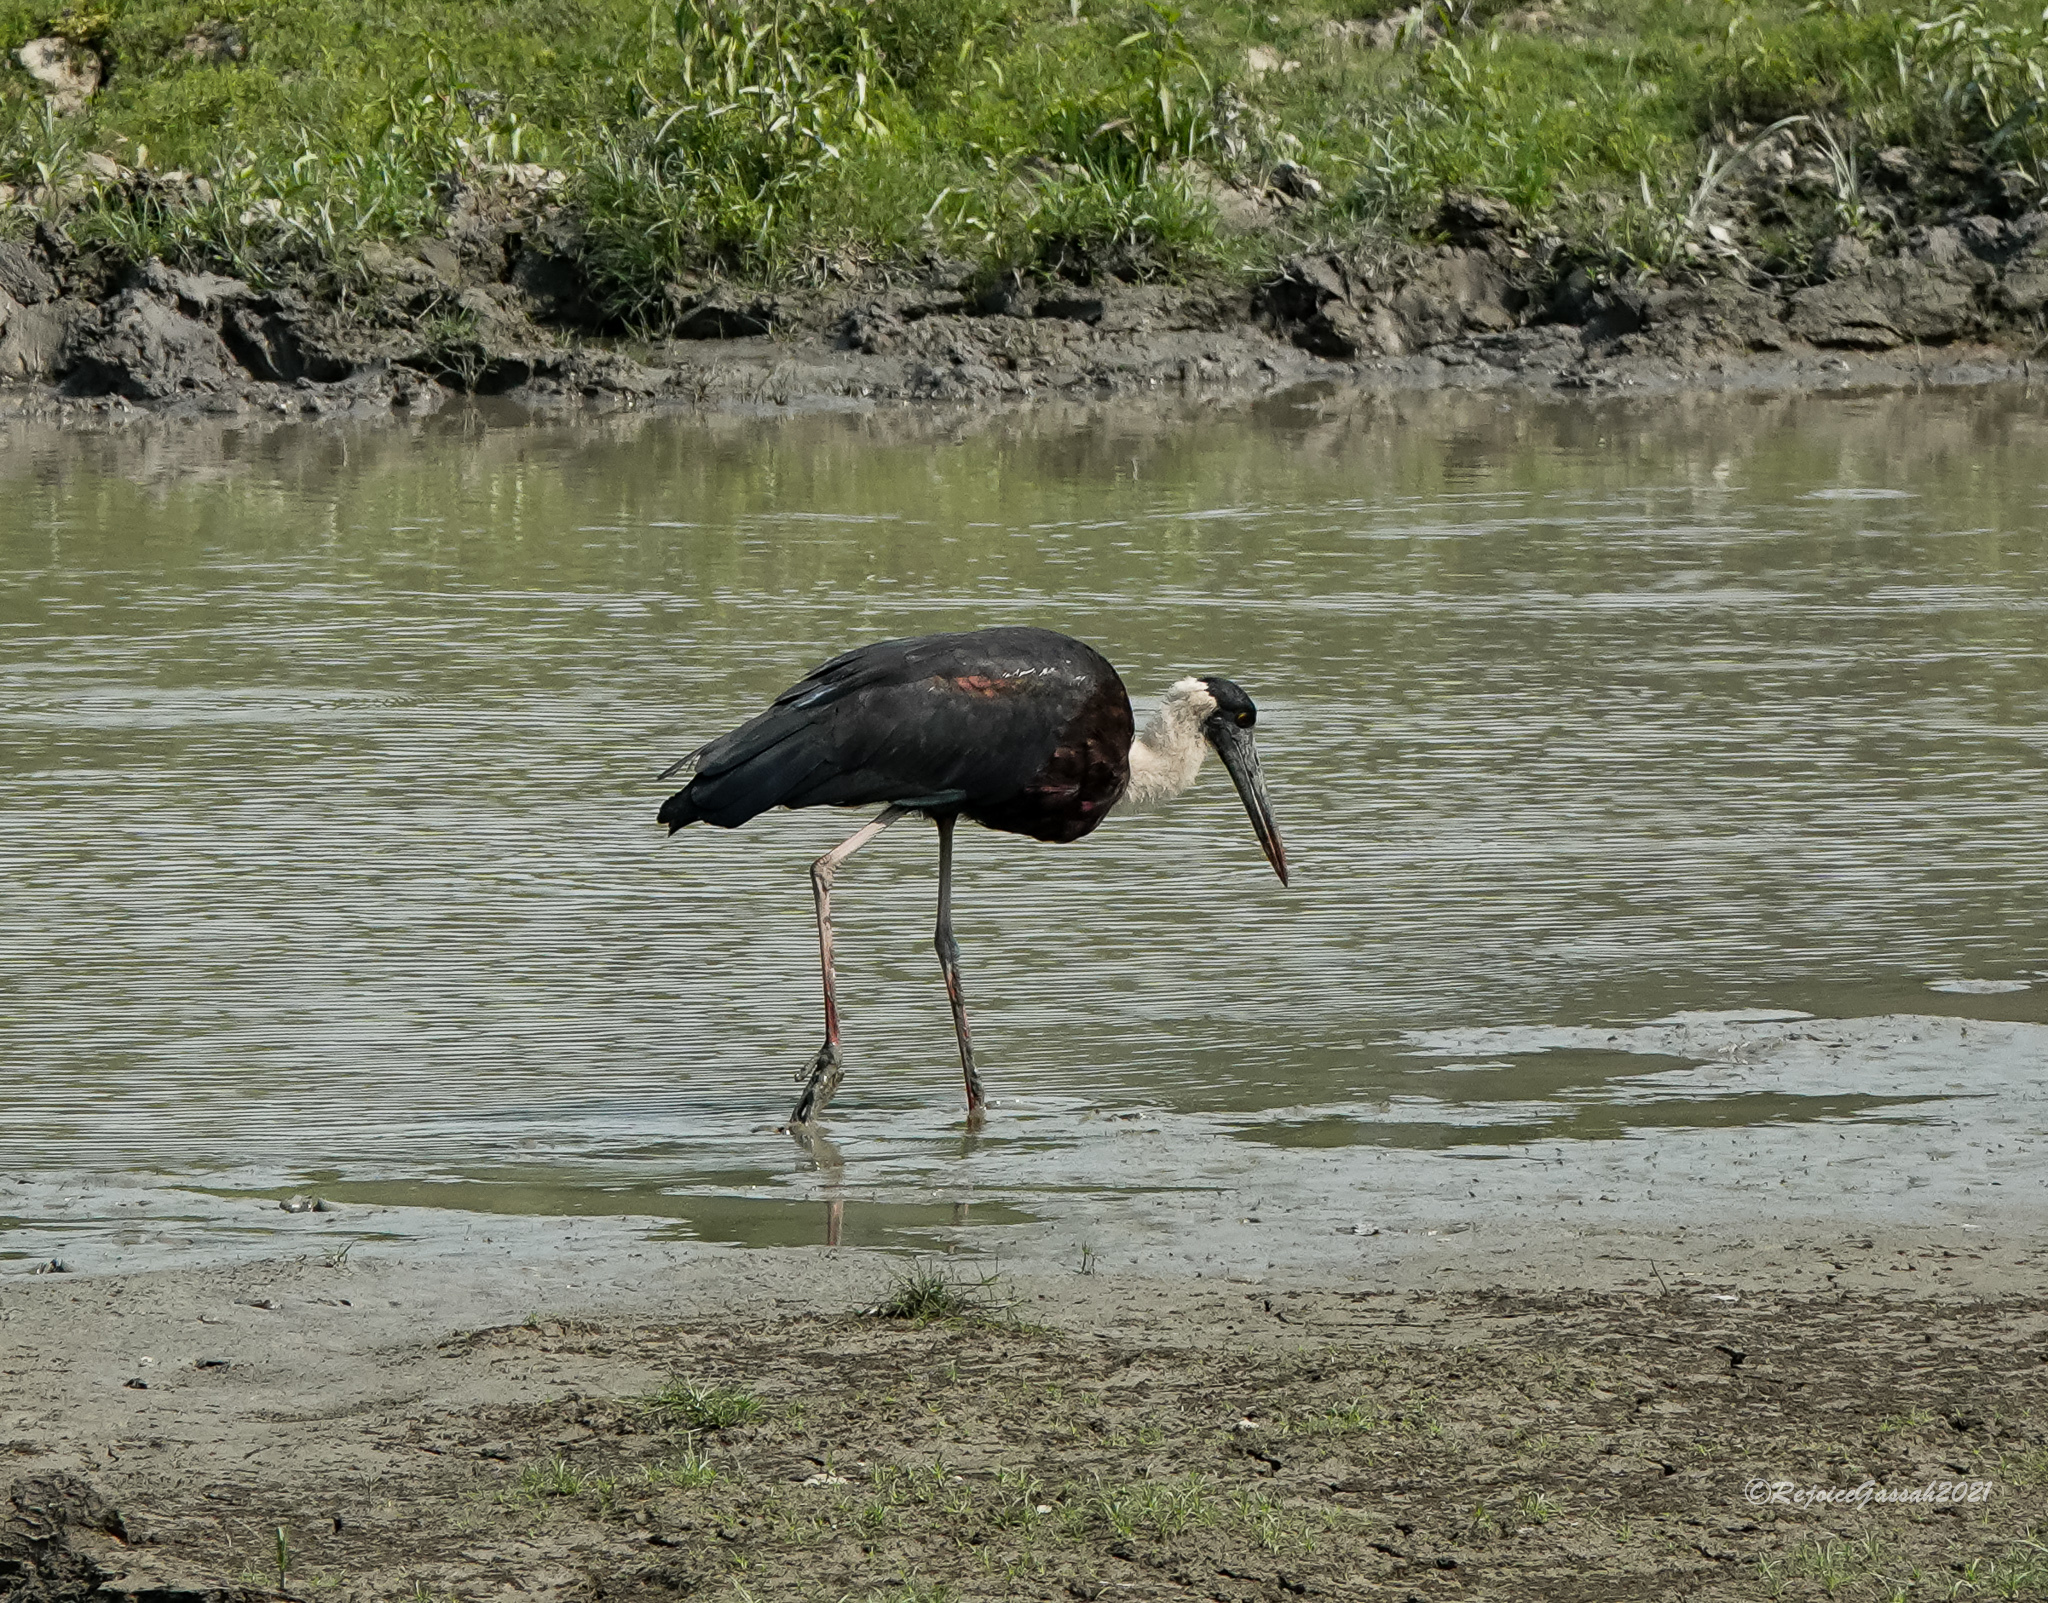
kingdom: Animalia
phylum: Chordata
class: Aves
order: Ciconiiformes
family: Ciconiidae
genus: Ciconia
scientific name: Ciconia episcopus
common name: Woolly-necked stork
